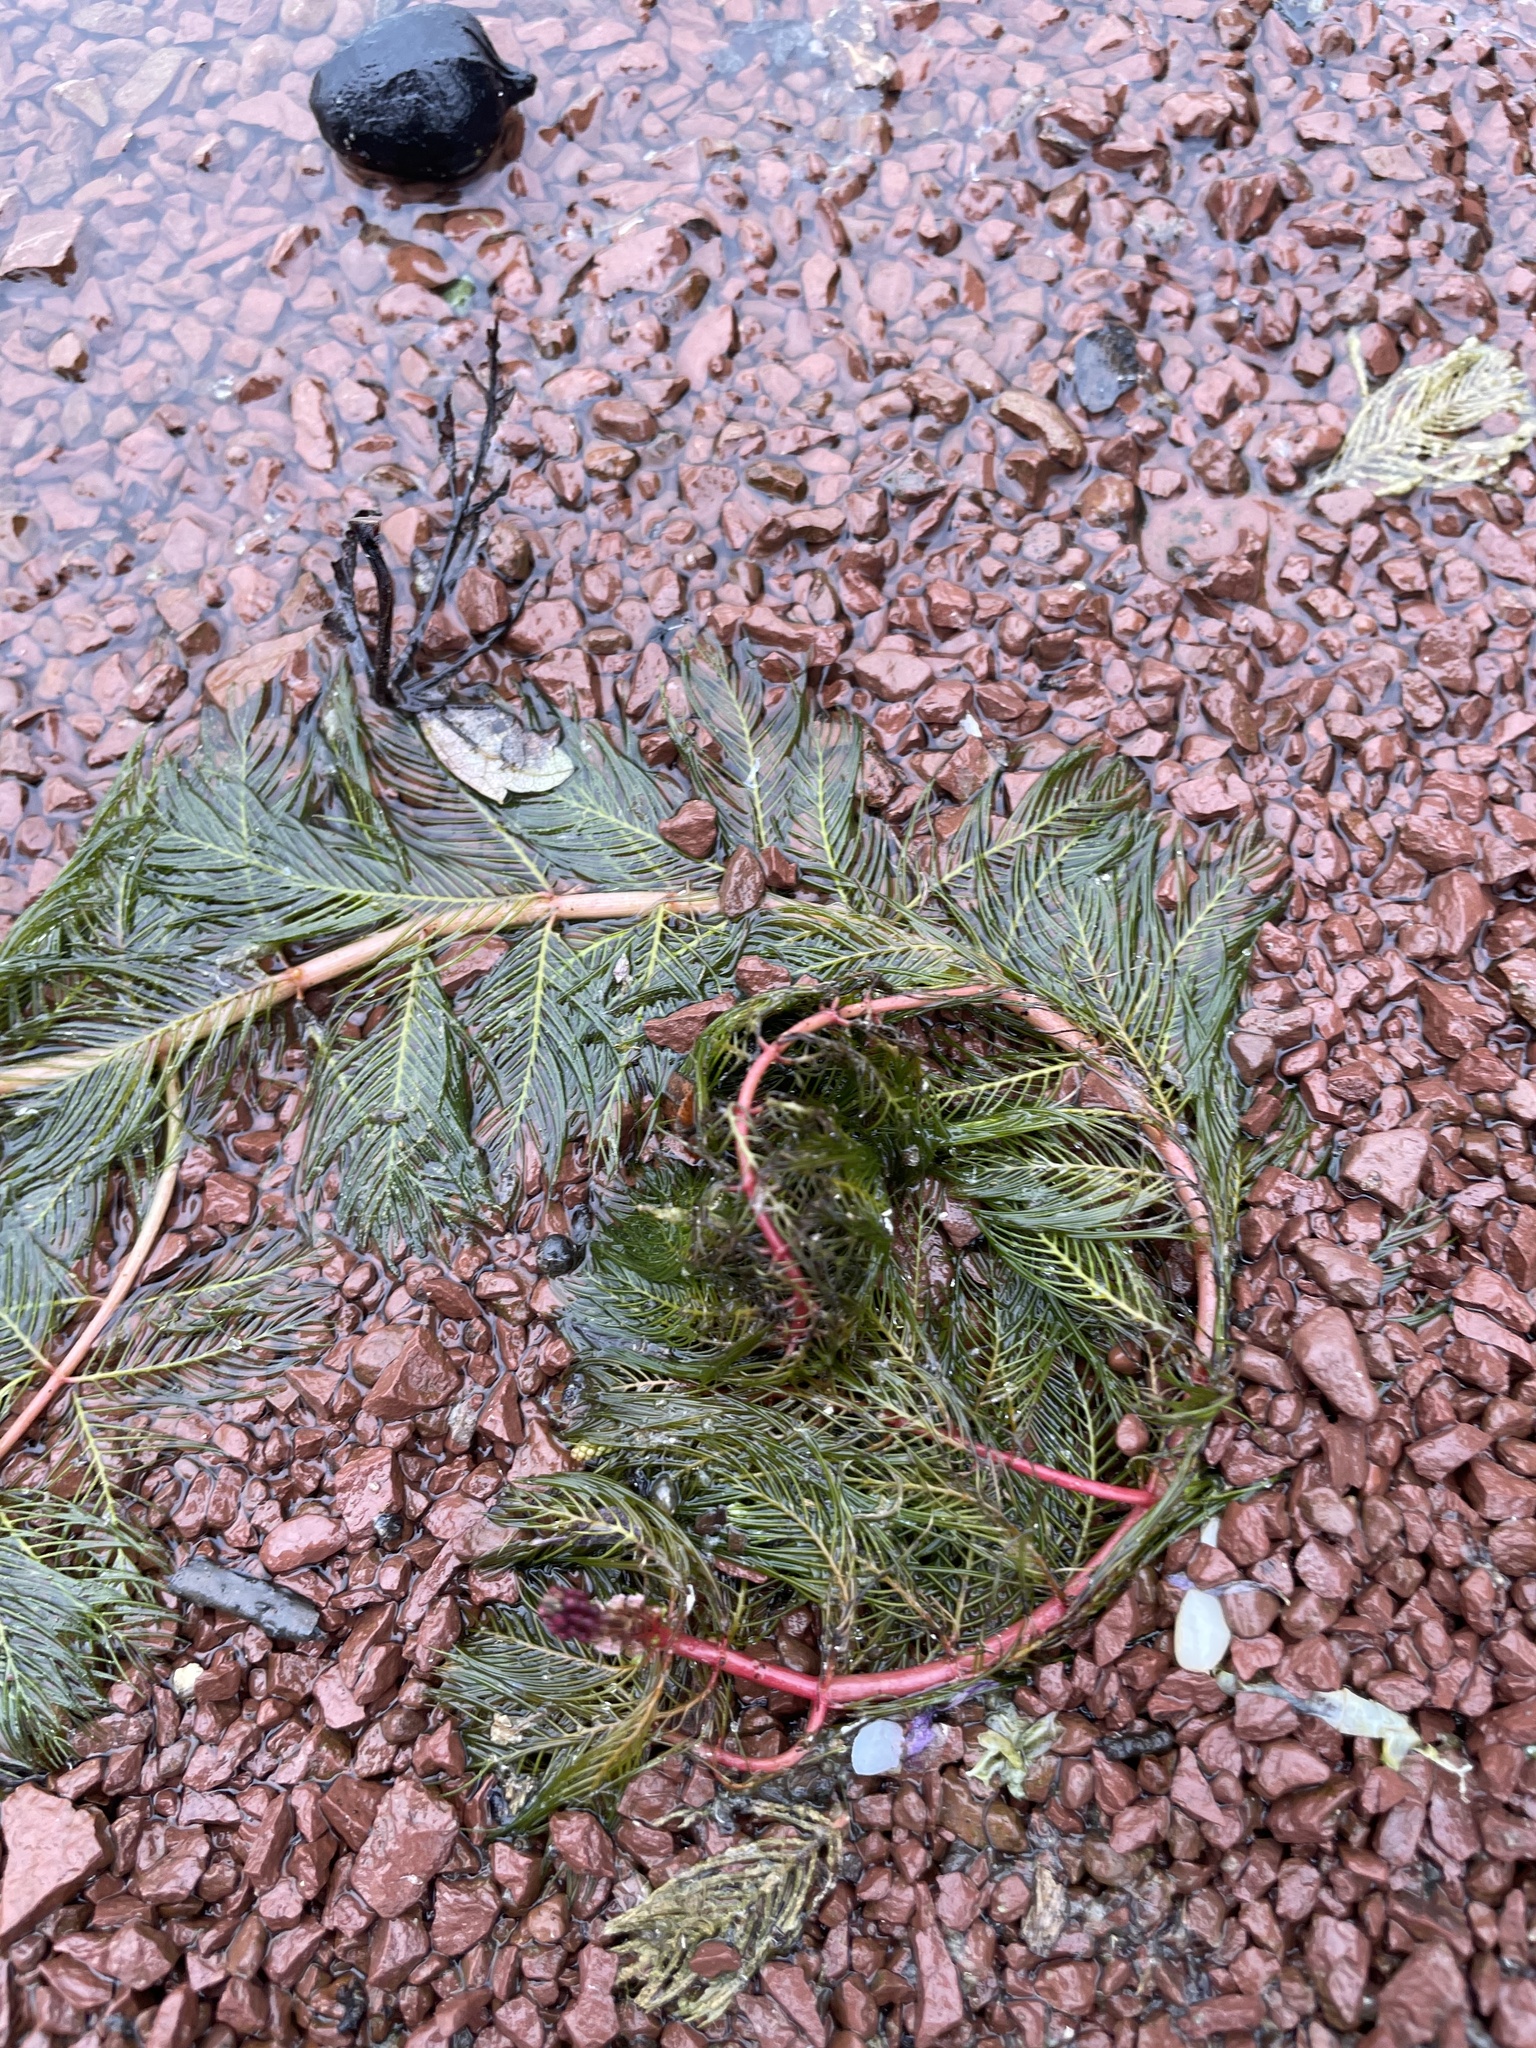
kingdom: Plantae
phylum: Tracheophyta
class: Magnoliopsida
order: Saxifragales
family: Haloragaceae
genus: Myriophyllum
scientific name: Myriophyllum spicatum
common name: Spiked water-milfoil
